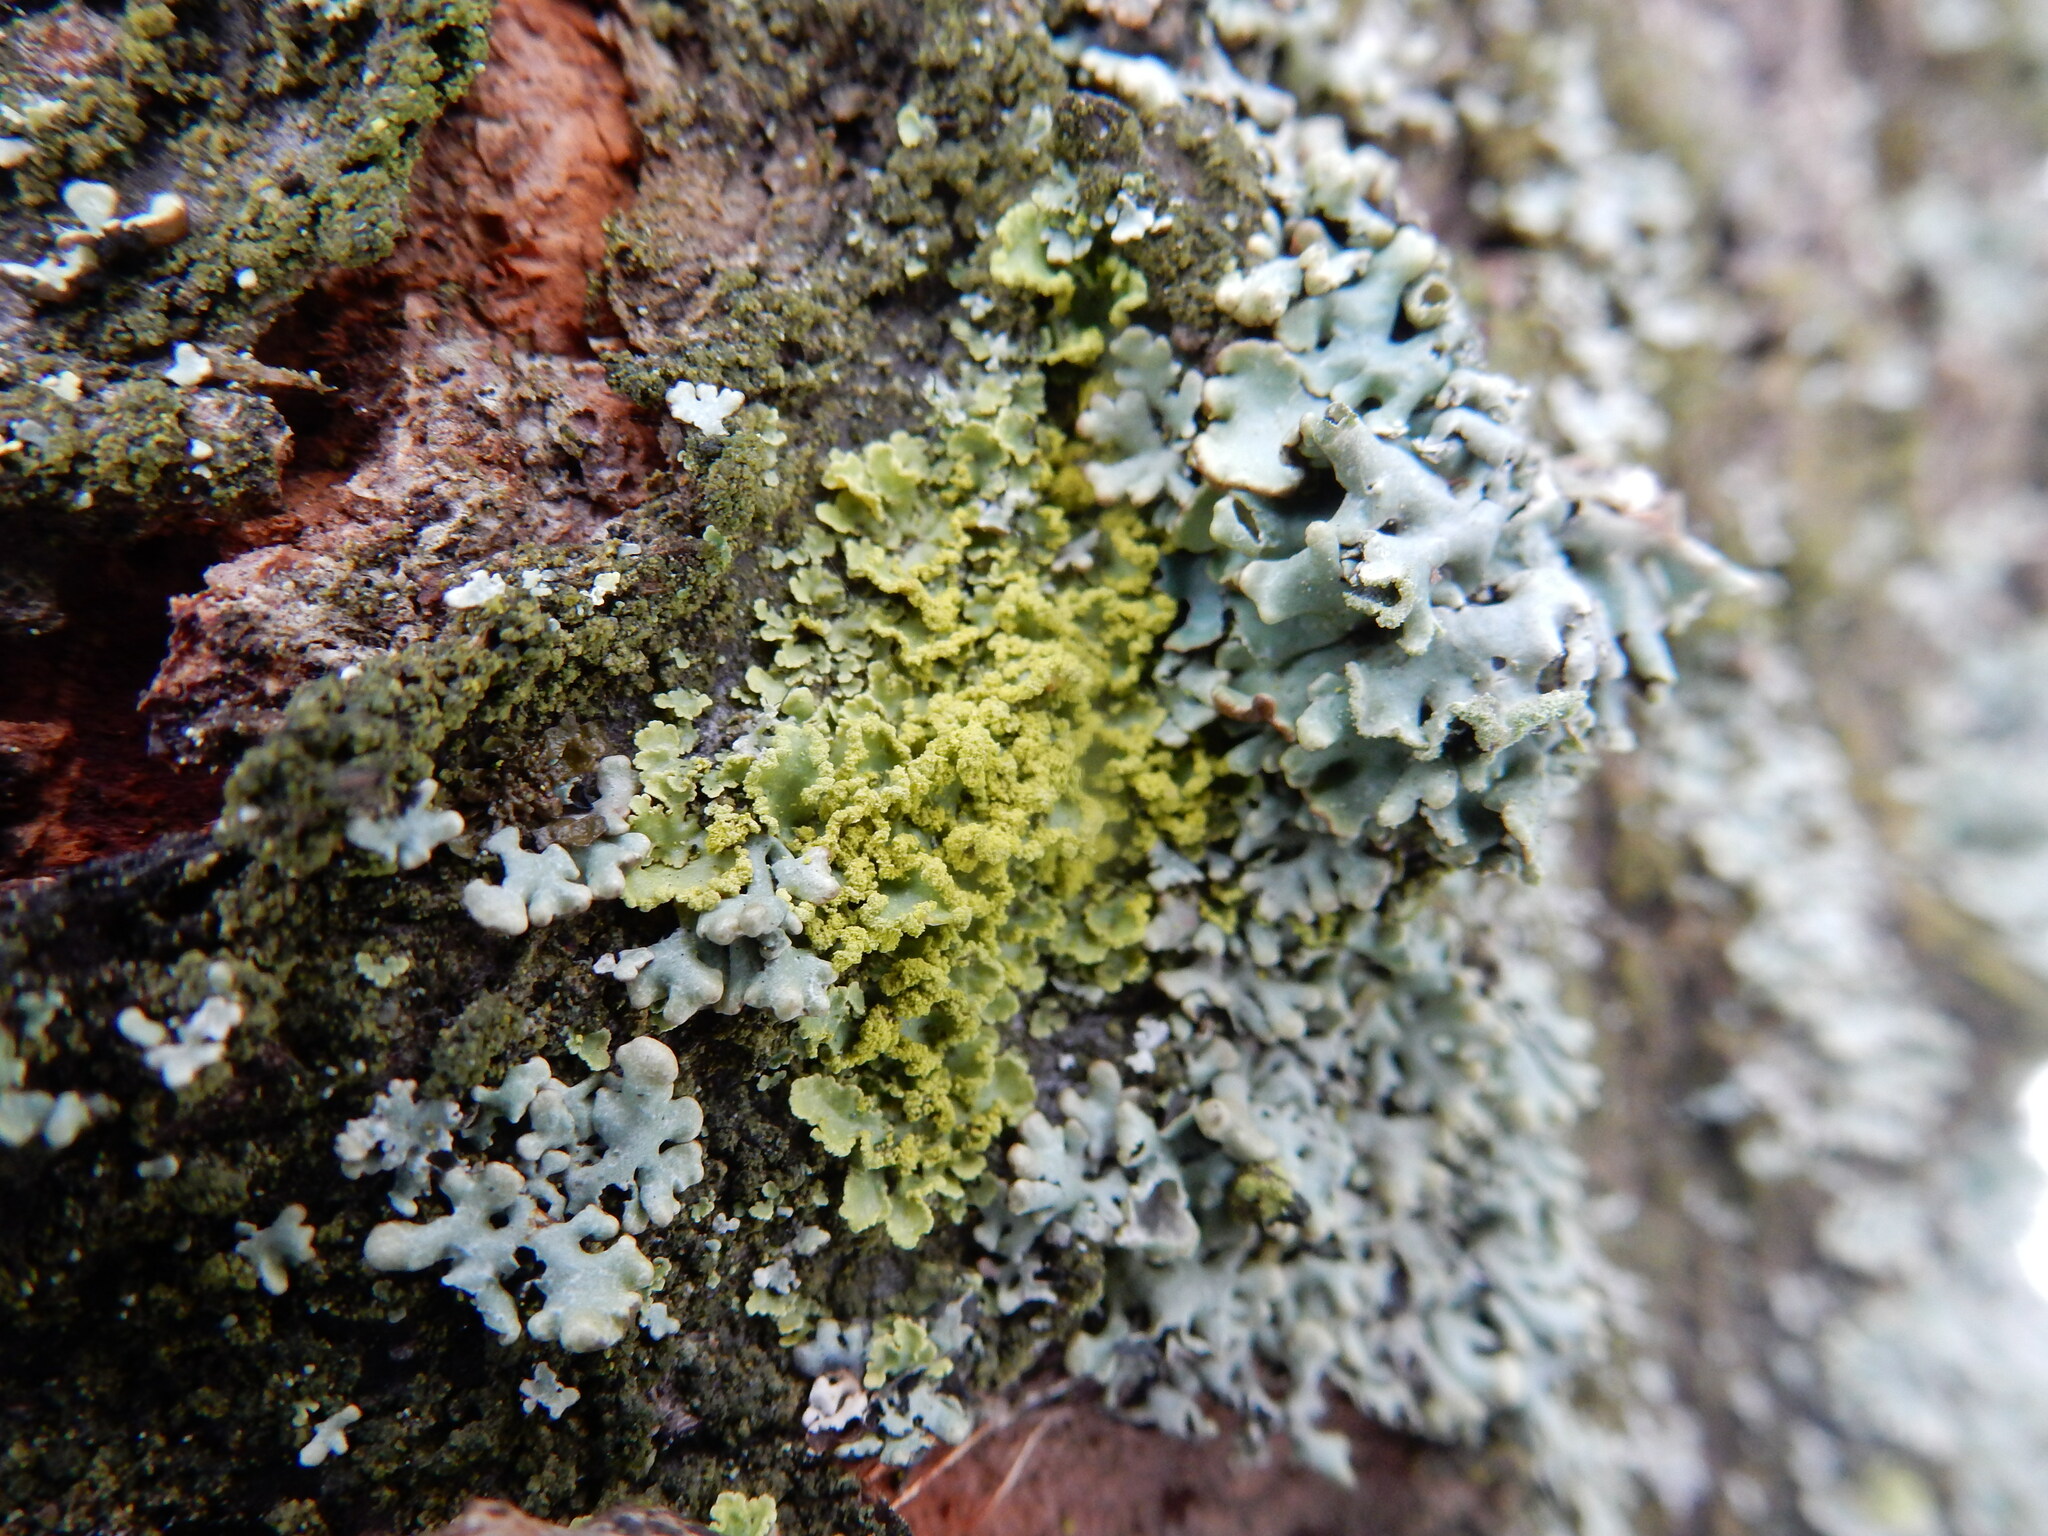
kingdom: Fungi
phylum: Ascomycota
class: Lecanoromycetes
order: Lecanorales
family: Parmeliaceae
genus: Vulpicida
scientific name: Vulpicida pinastri
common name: Powdered sunshine lichen
